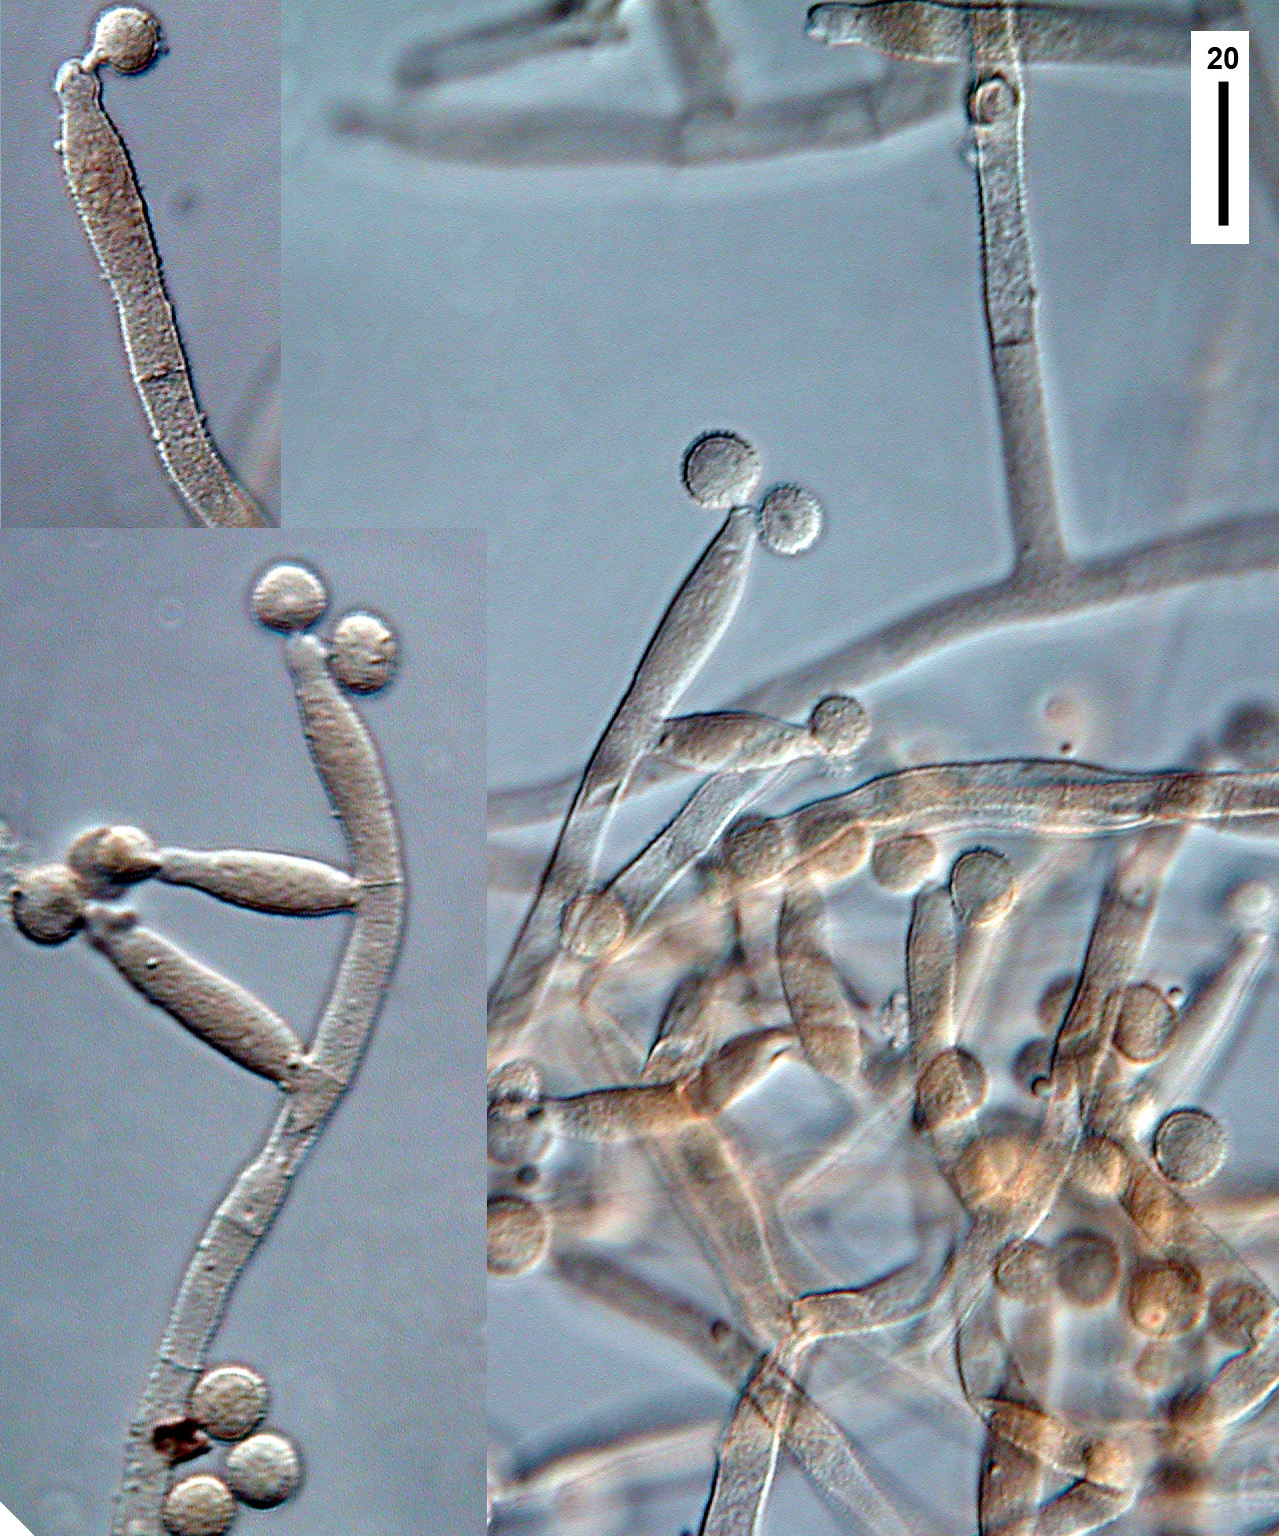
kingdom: Fungi
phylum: Ascomycota
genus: Stenocephalopsis
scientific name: Stenocephalopsis subalutacea
